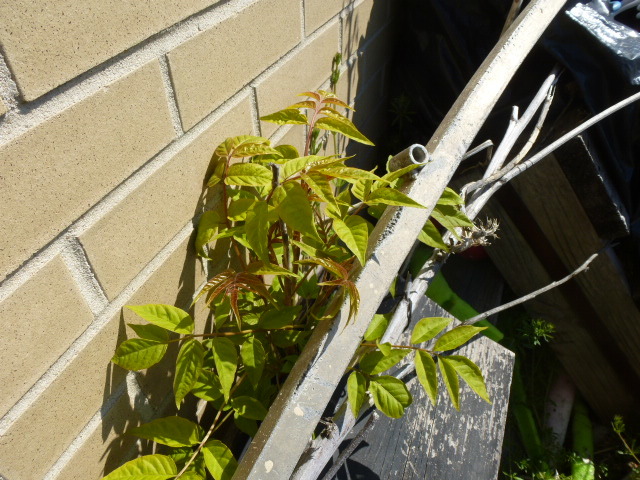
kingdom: Plantae
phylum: Tracheophyta
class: Magnoliopsida
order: Sapindales
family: Simaroubaceae
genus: Ailanthus
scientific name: Ailanthus altissima
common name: Tree-of-heaven
